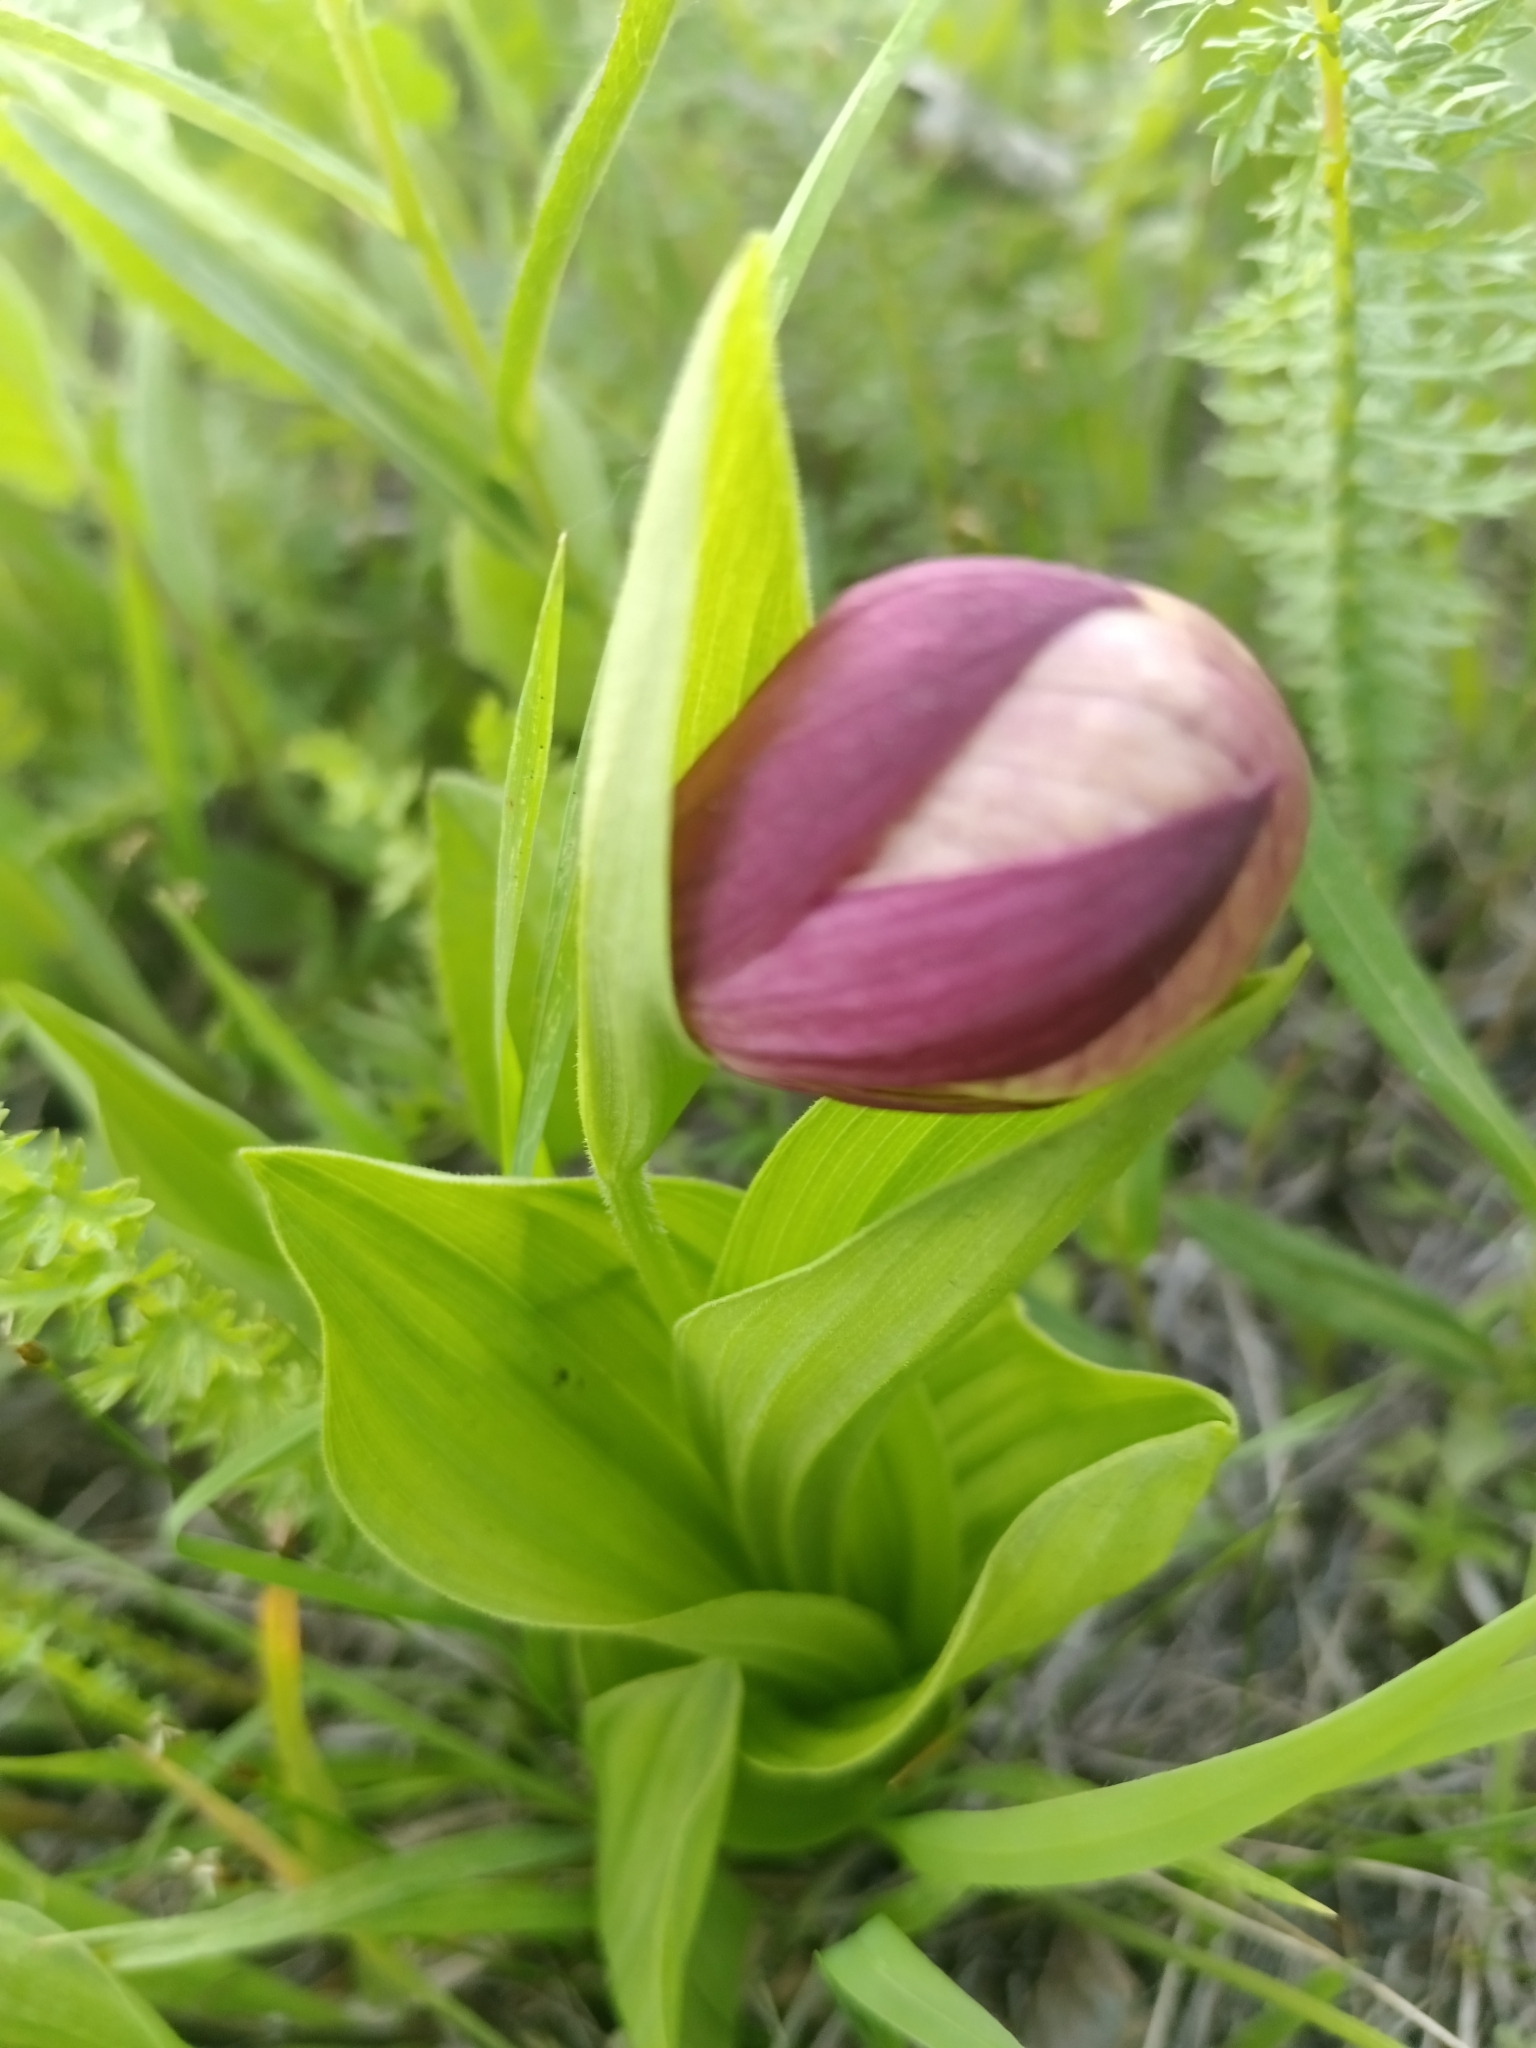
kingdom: Plantae
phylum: Tracheophyta
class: Liliopsida
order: Asparagales
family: Orchidaceae
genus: Cypripedium
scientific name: Cypripedium macranthos
